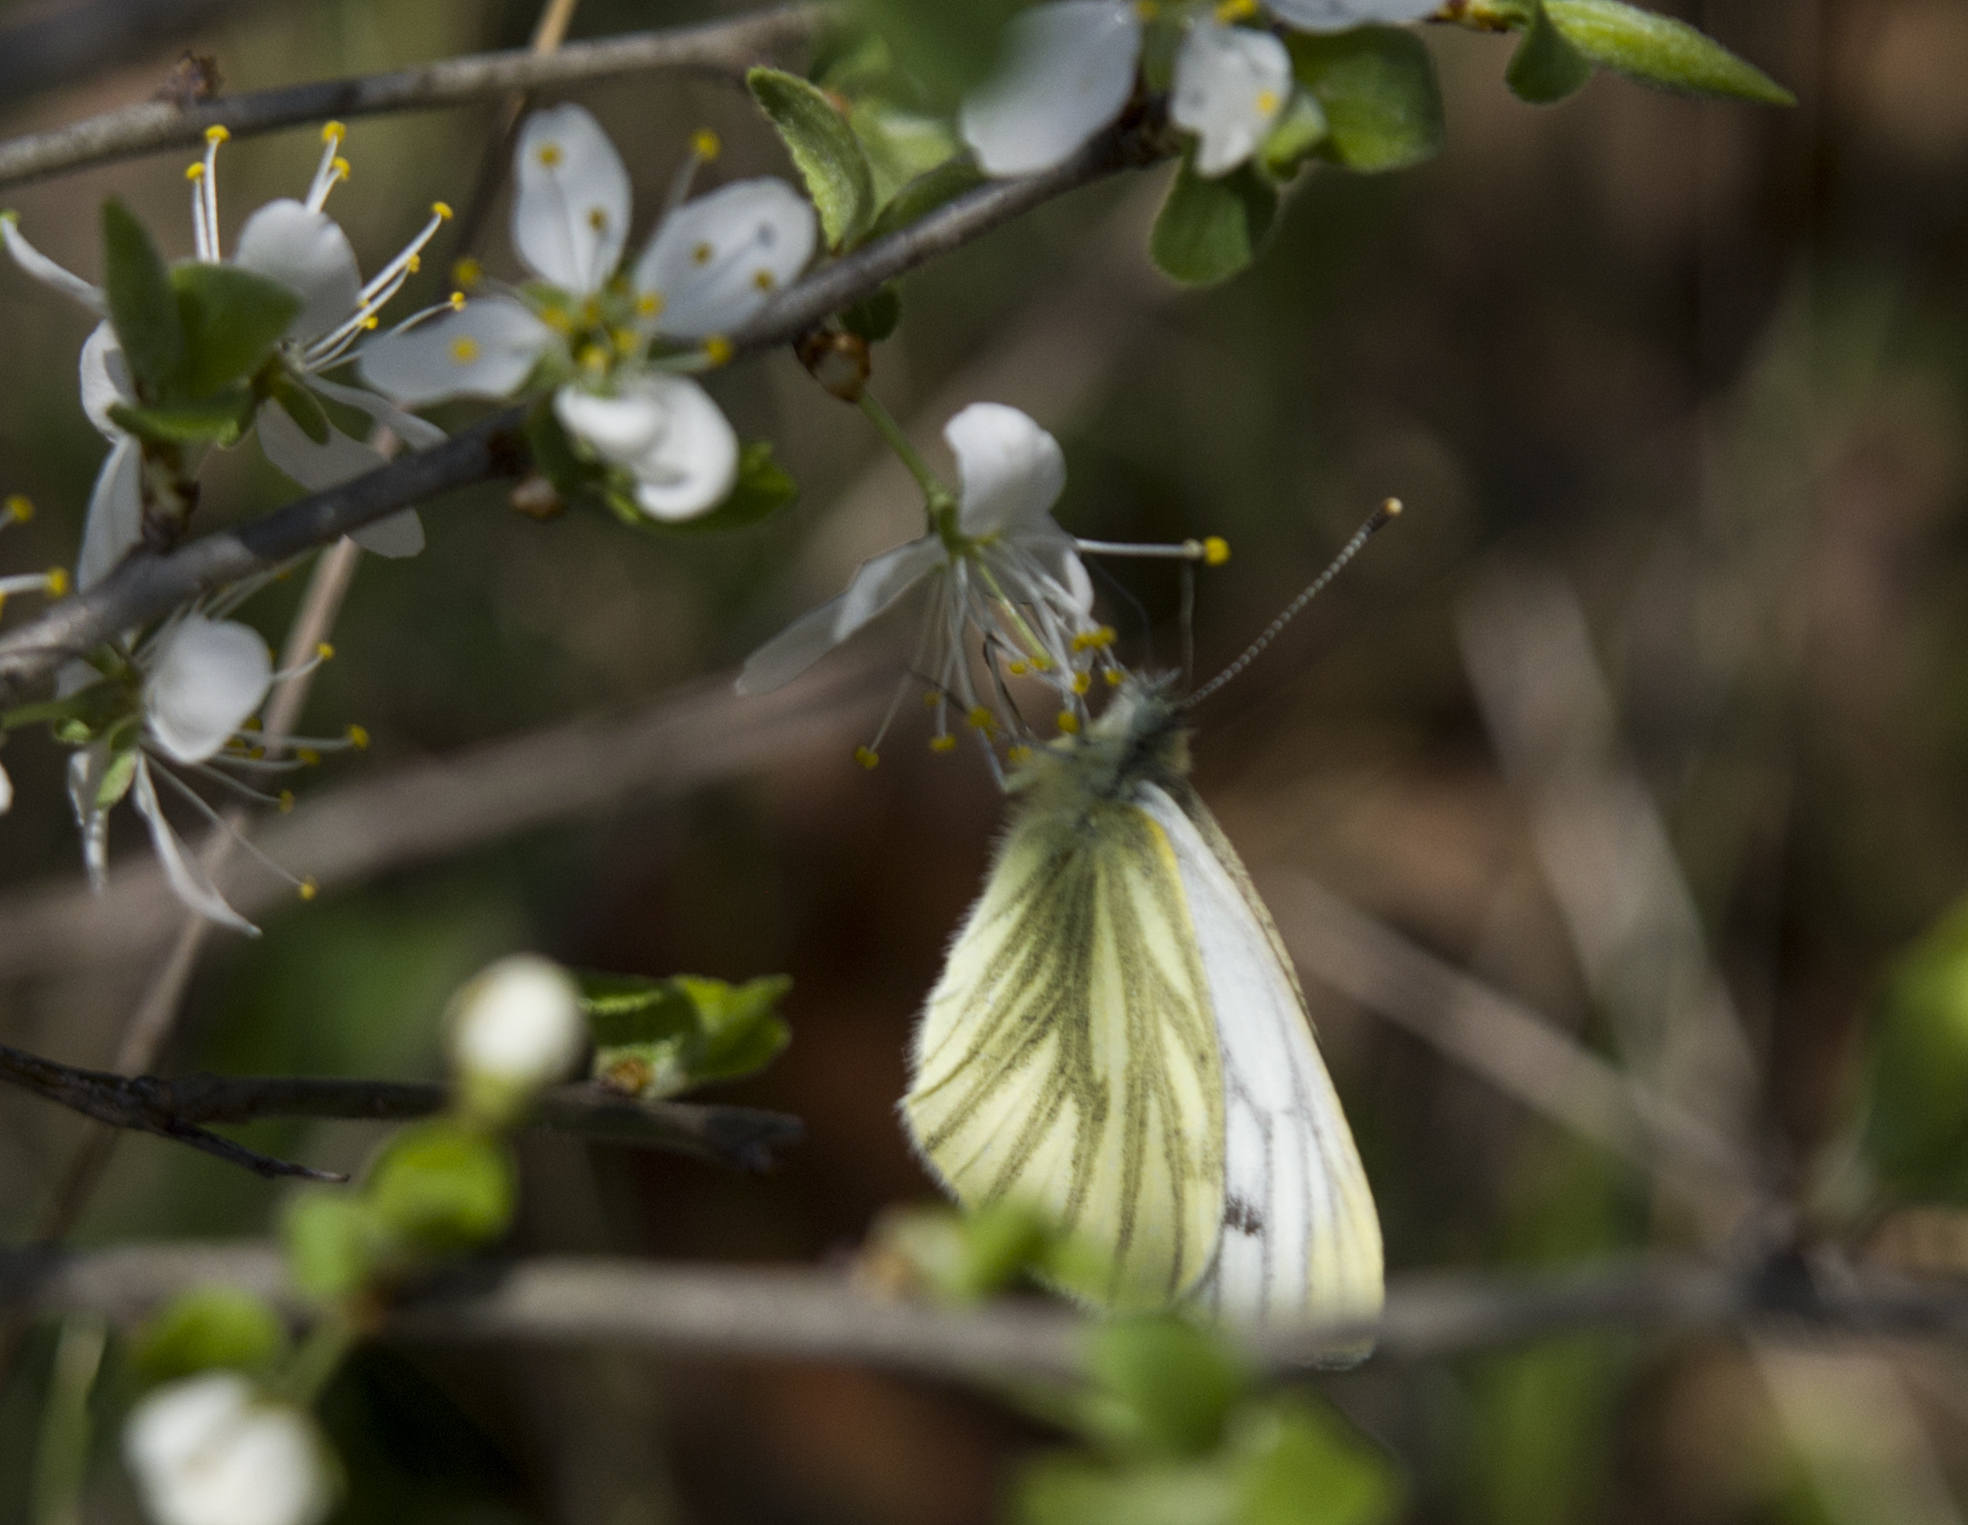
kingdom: Animalia
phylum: Arthropoda
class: Insecta
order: Lepidoptera
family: Pieridae
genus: Pieris
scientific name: Pieris napi
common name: Green-veined white
